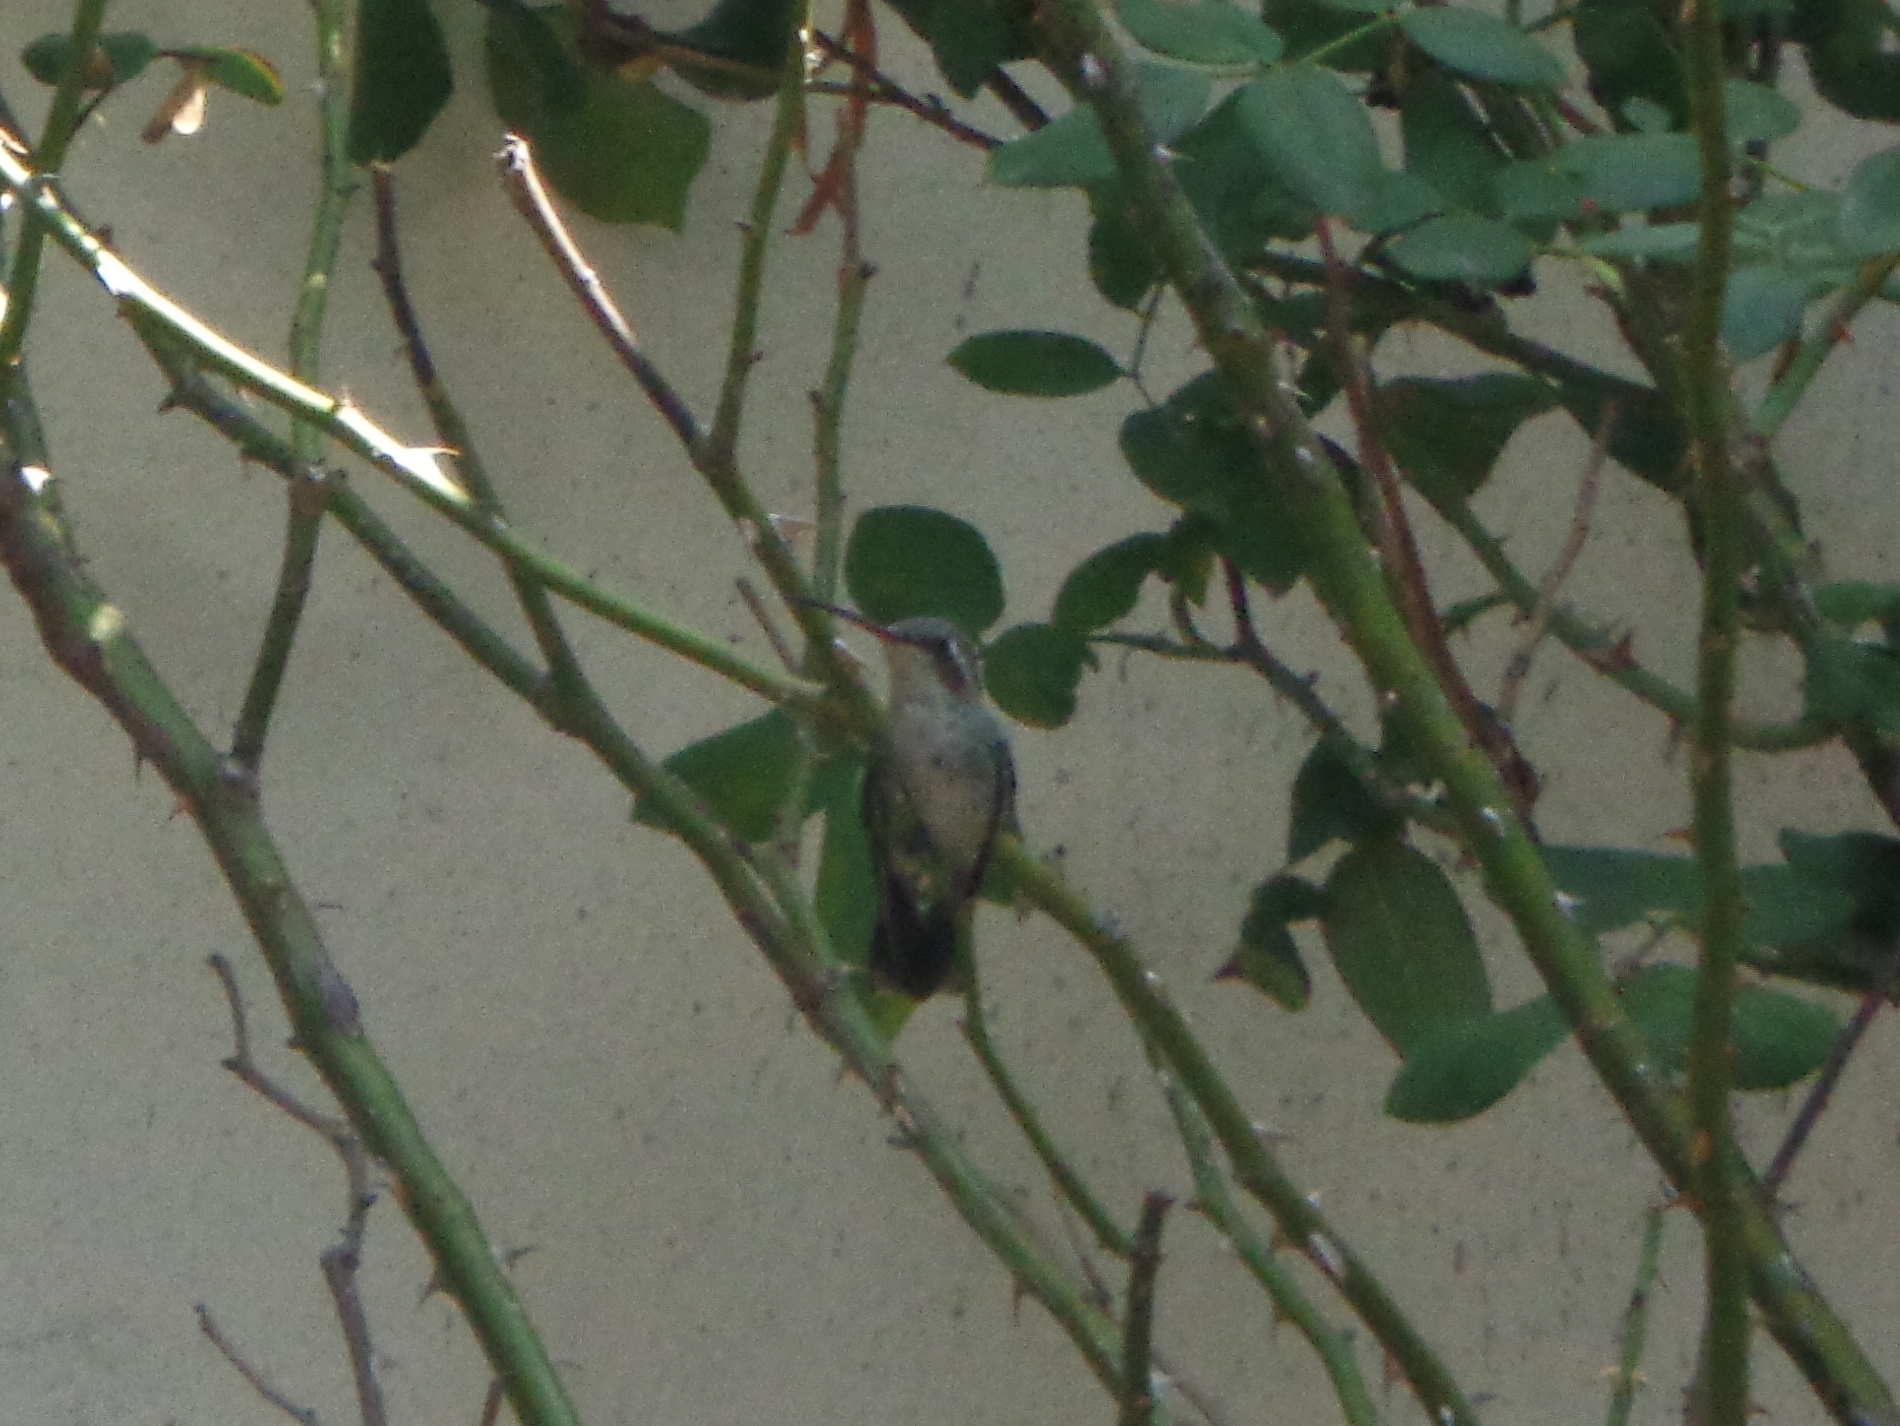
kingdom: Animalia
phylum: Chordata
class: Aves
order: Apodiformes
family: Trochilidae
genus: Cynanthus
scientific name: Cynanthus latirostris
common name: Broad-billed hummingbird
